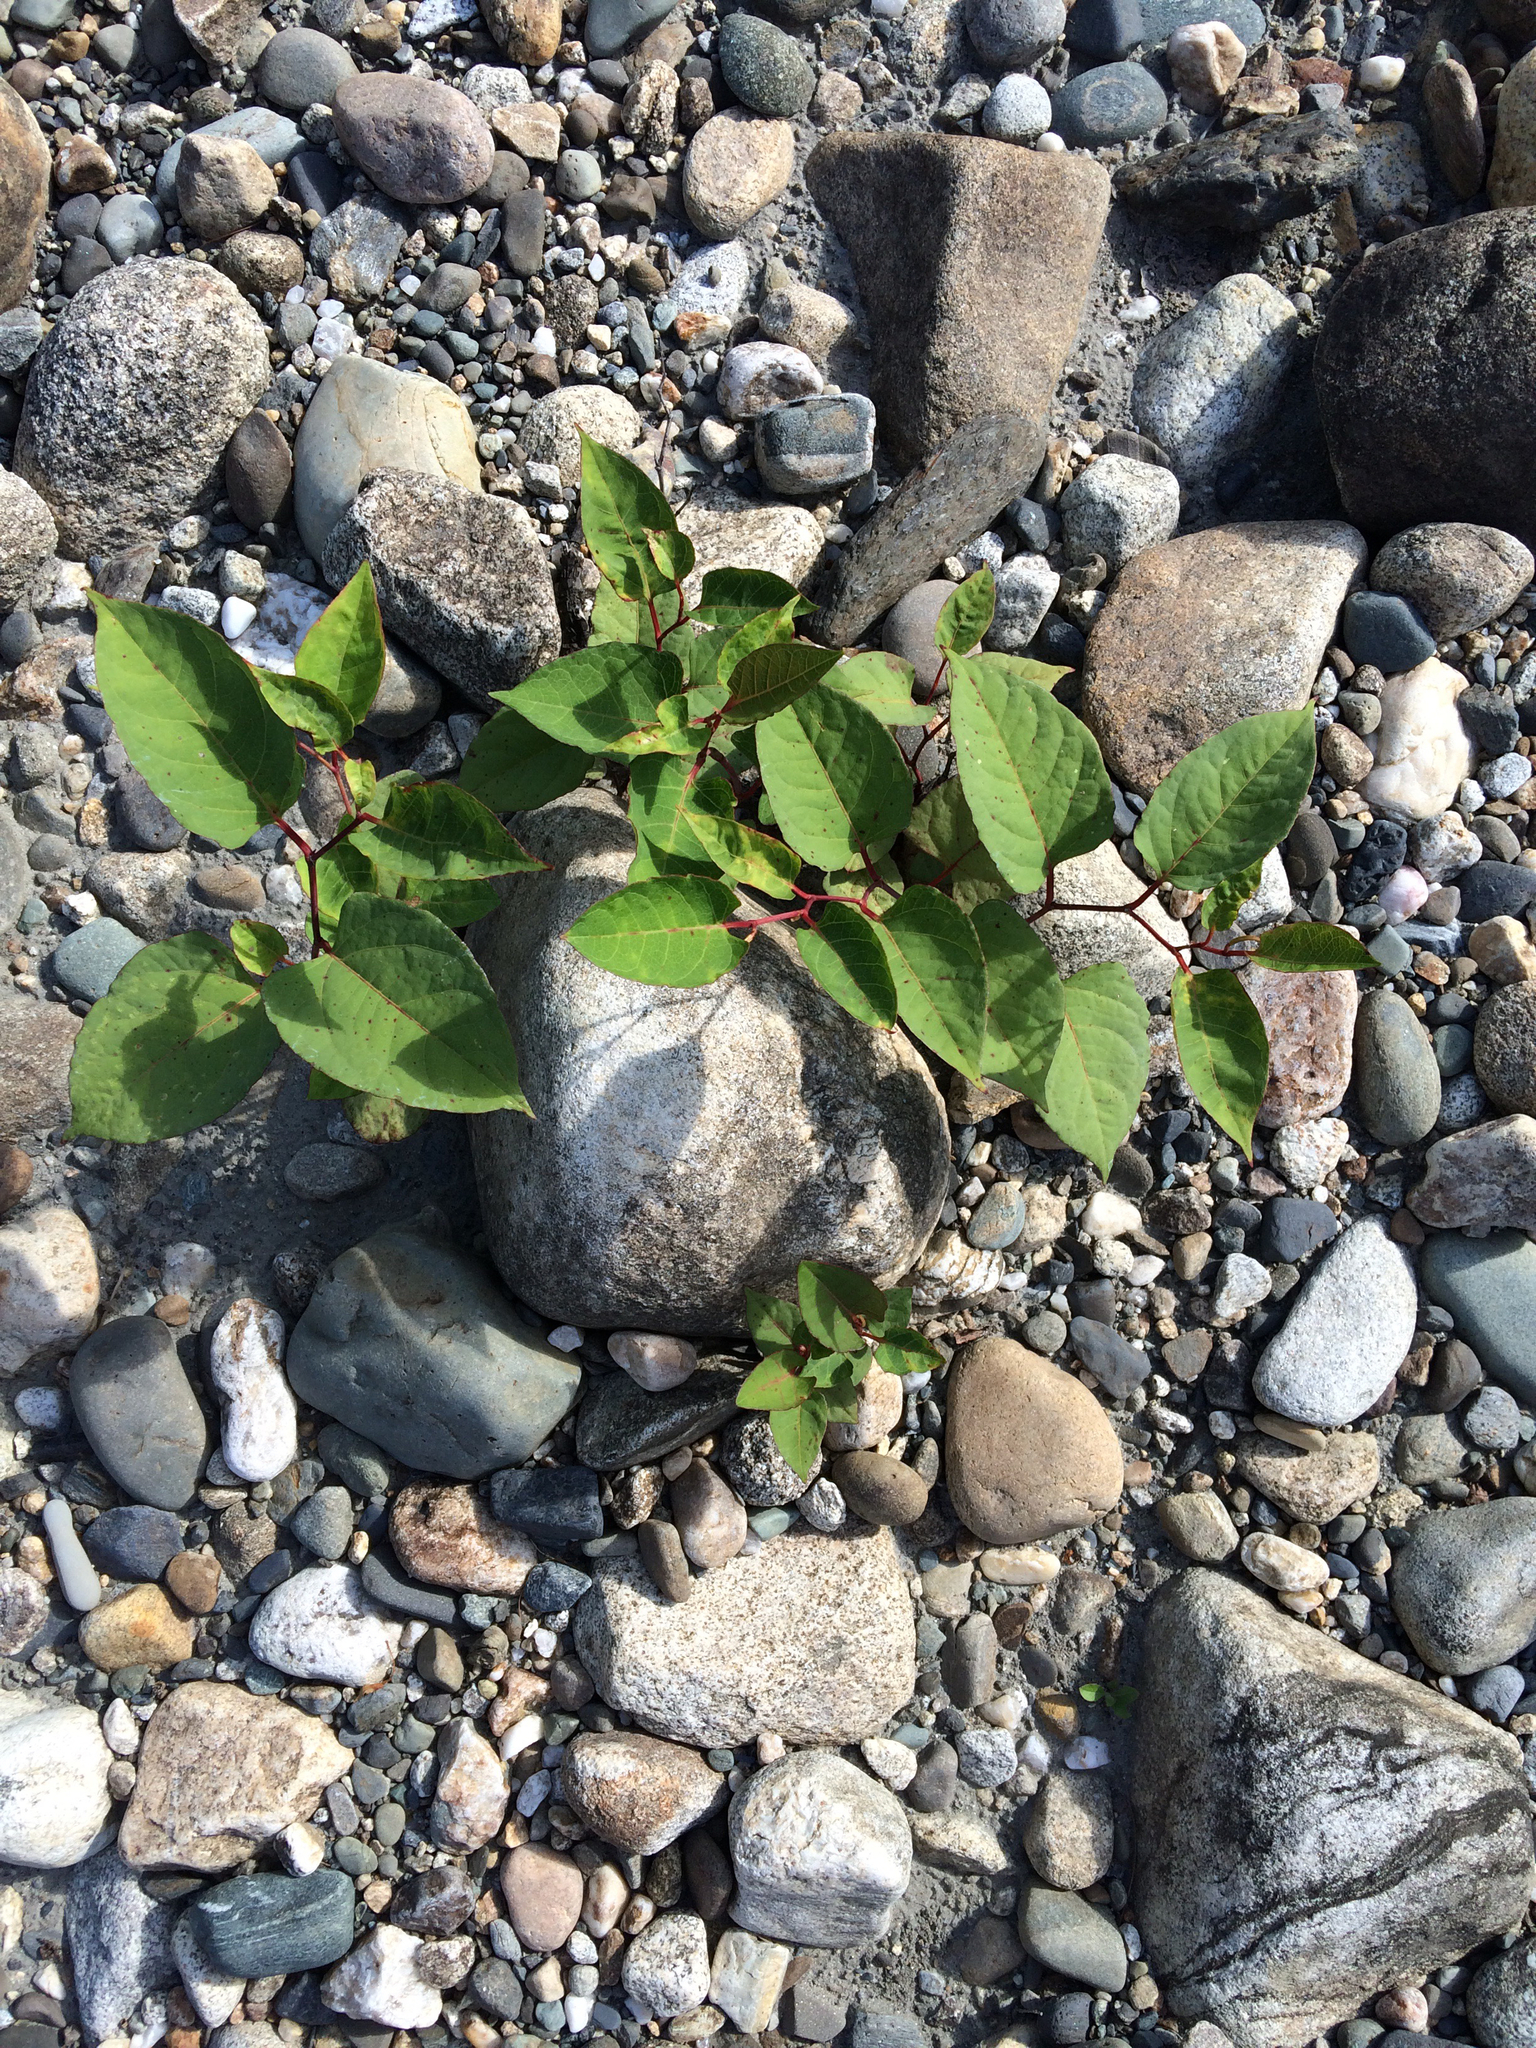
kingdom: Plantae
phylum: Tracheophyta
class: Magnoliopsida
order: Caryophyllales
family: Polygonaceae
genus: Reynoutria
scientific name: Reynoutria japonica
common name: Japanese knotweed
